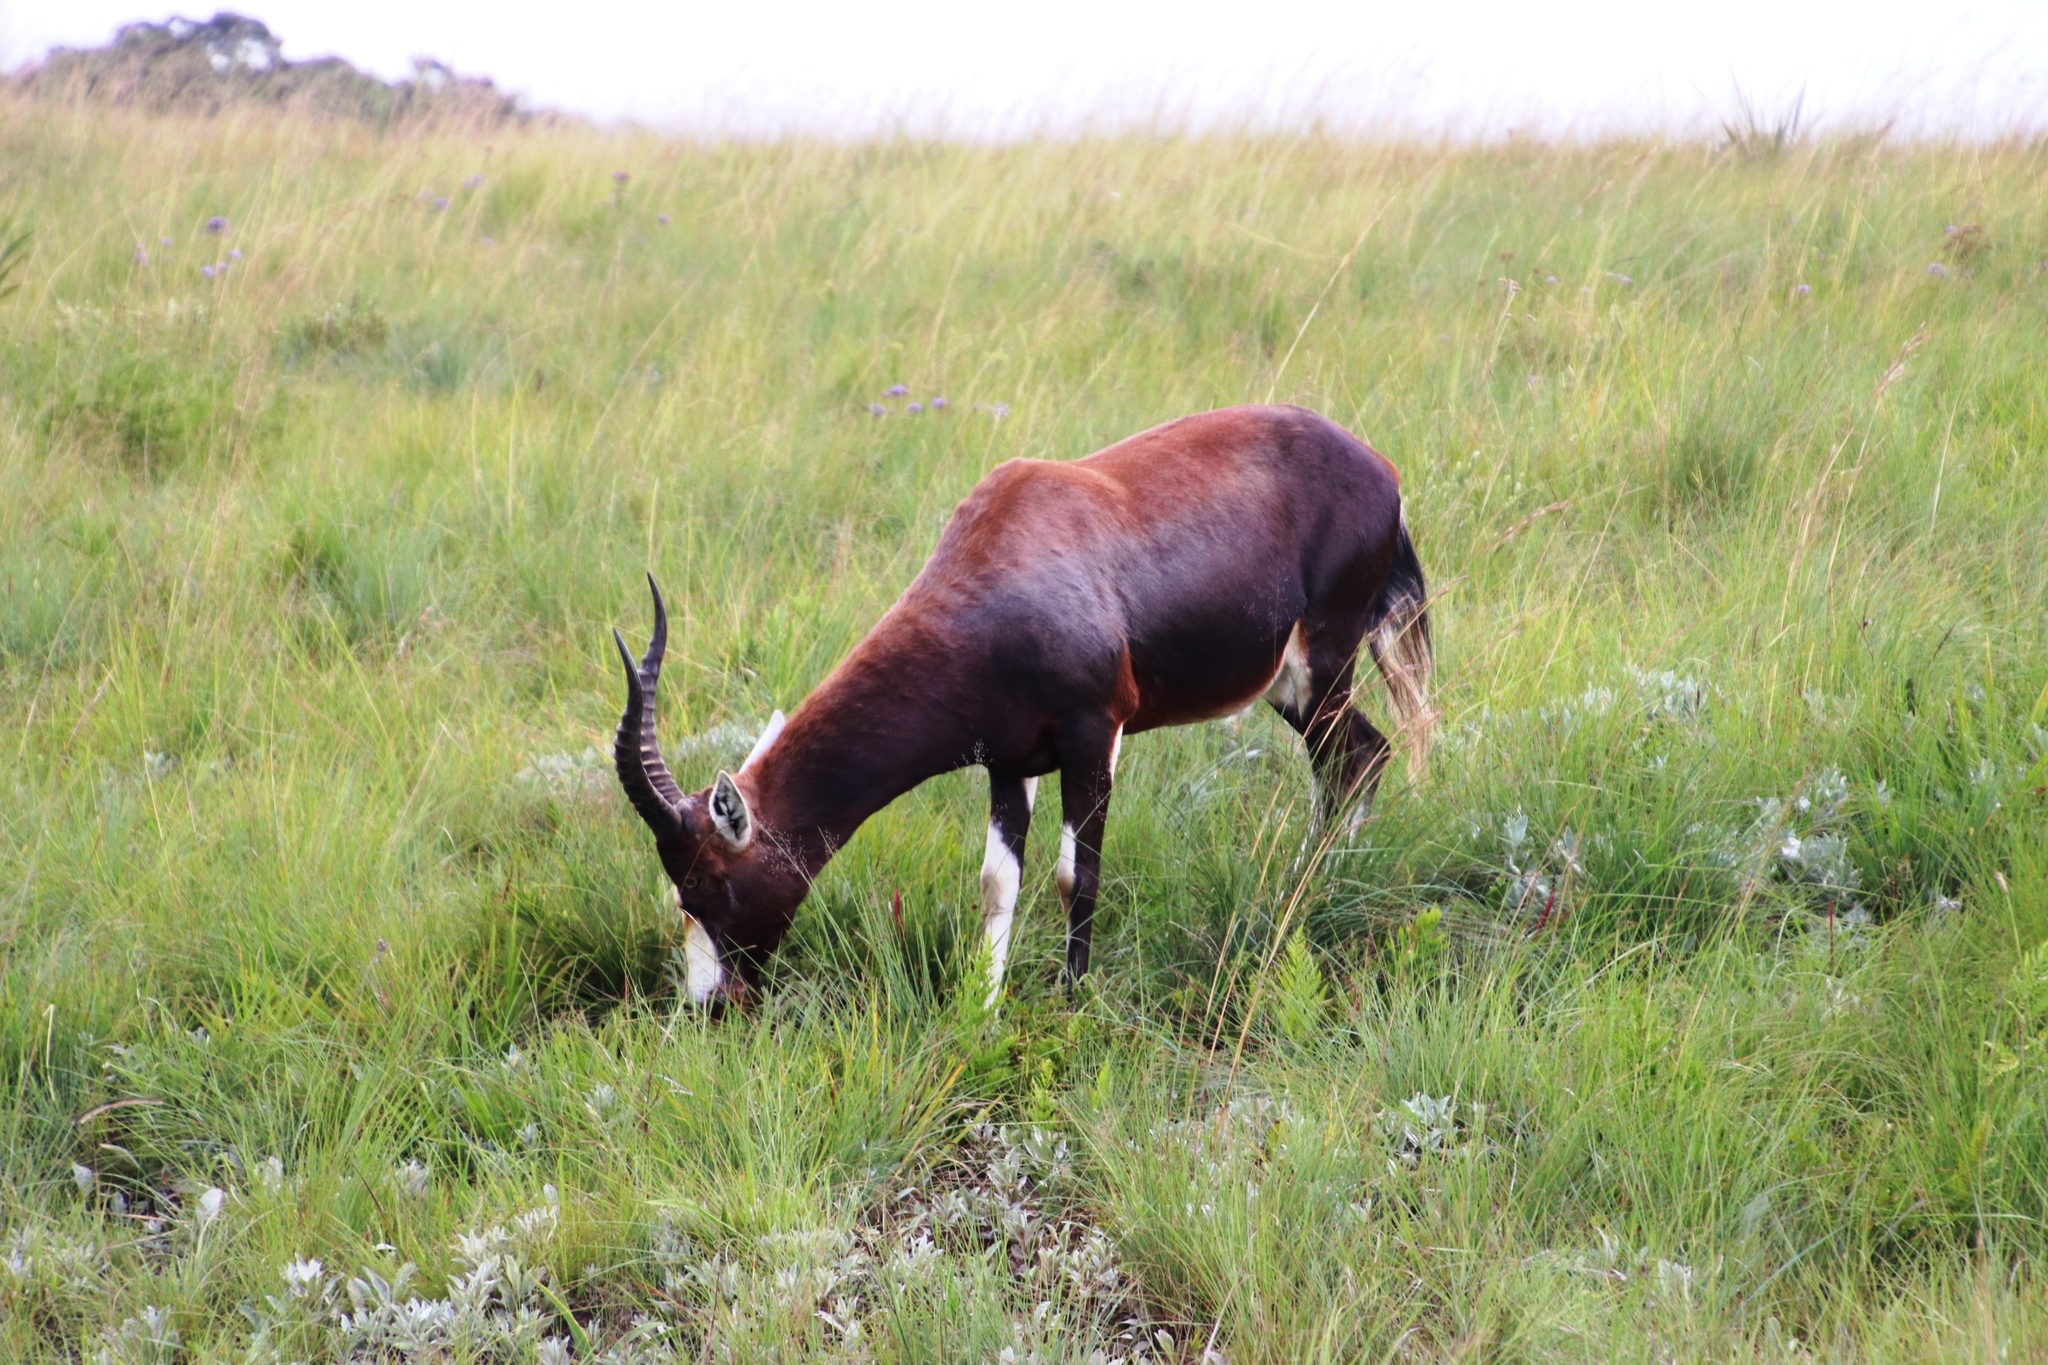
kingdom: Animalia
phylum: Chordata
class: Mammalia
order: Artiodactyla
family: Bovidae
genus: Damaliscus
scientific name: Damaliscus pygargus
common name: Bontebok
